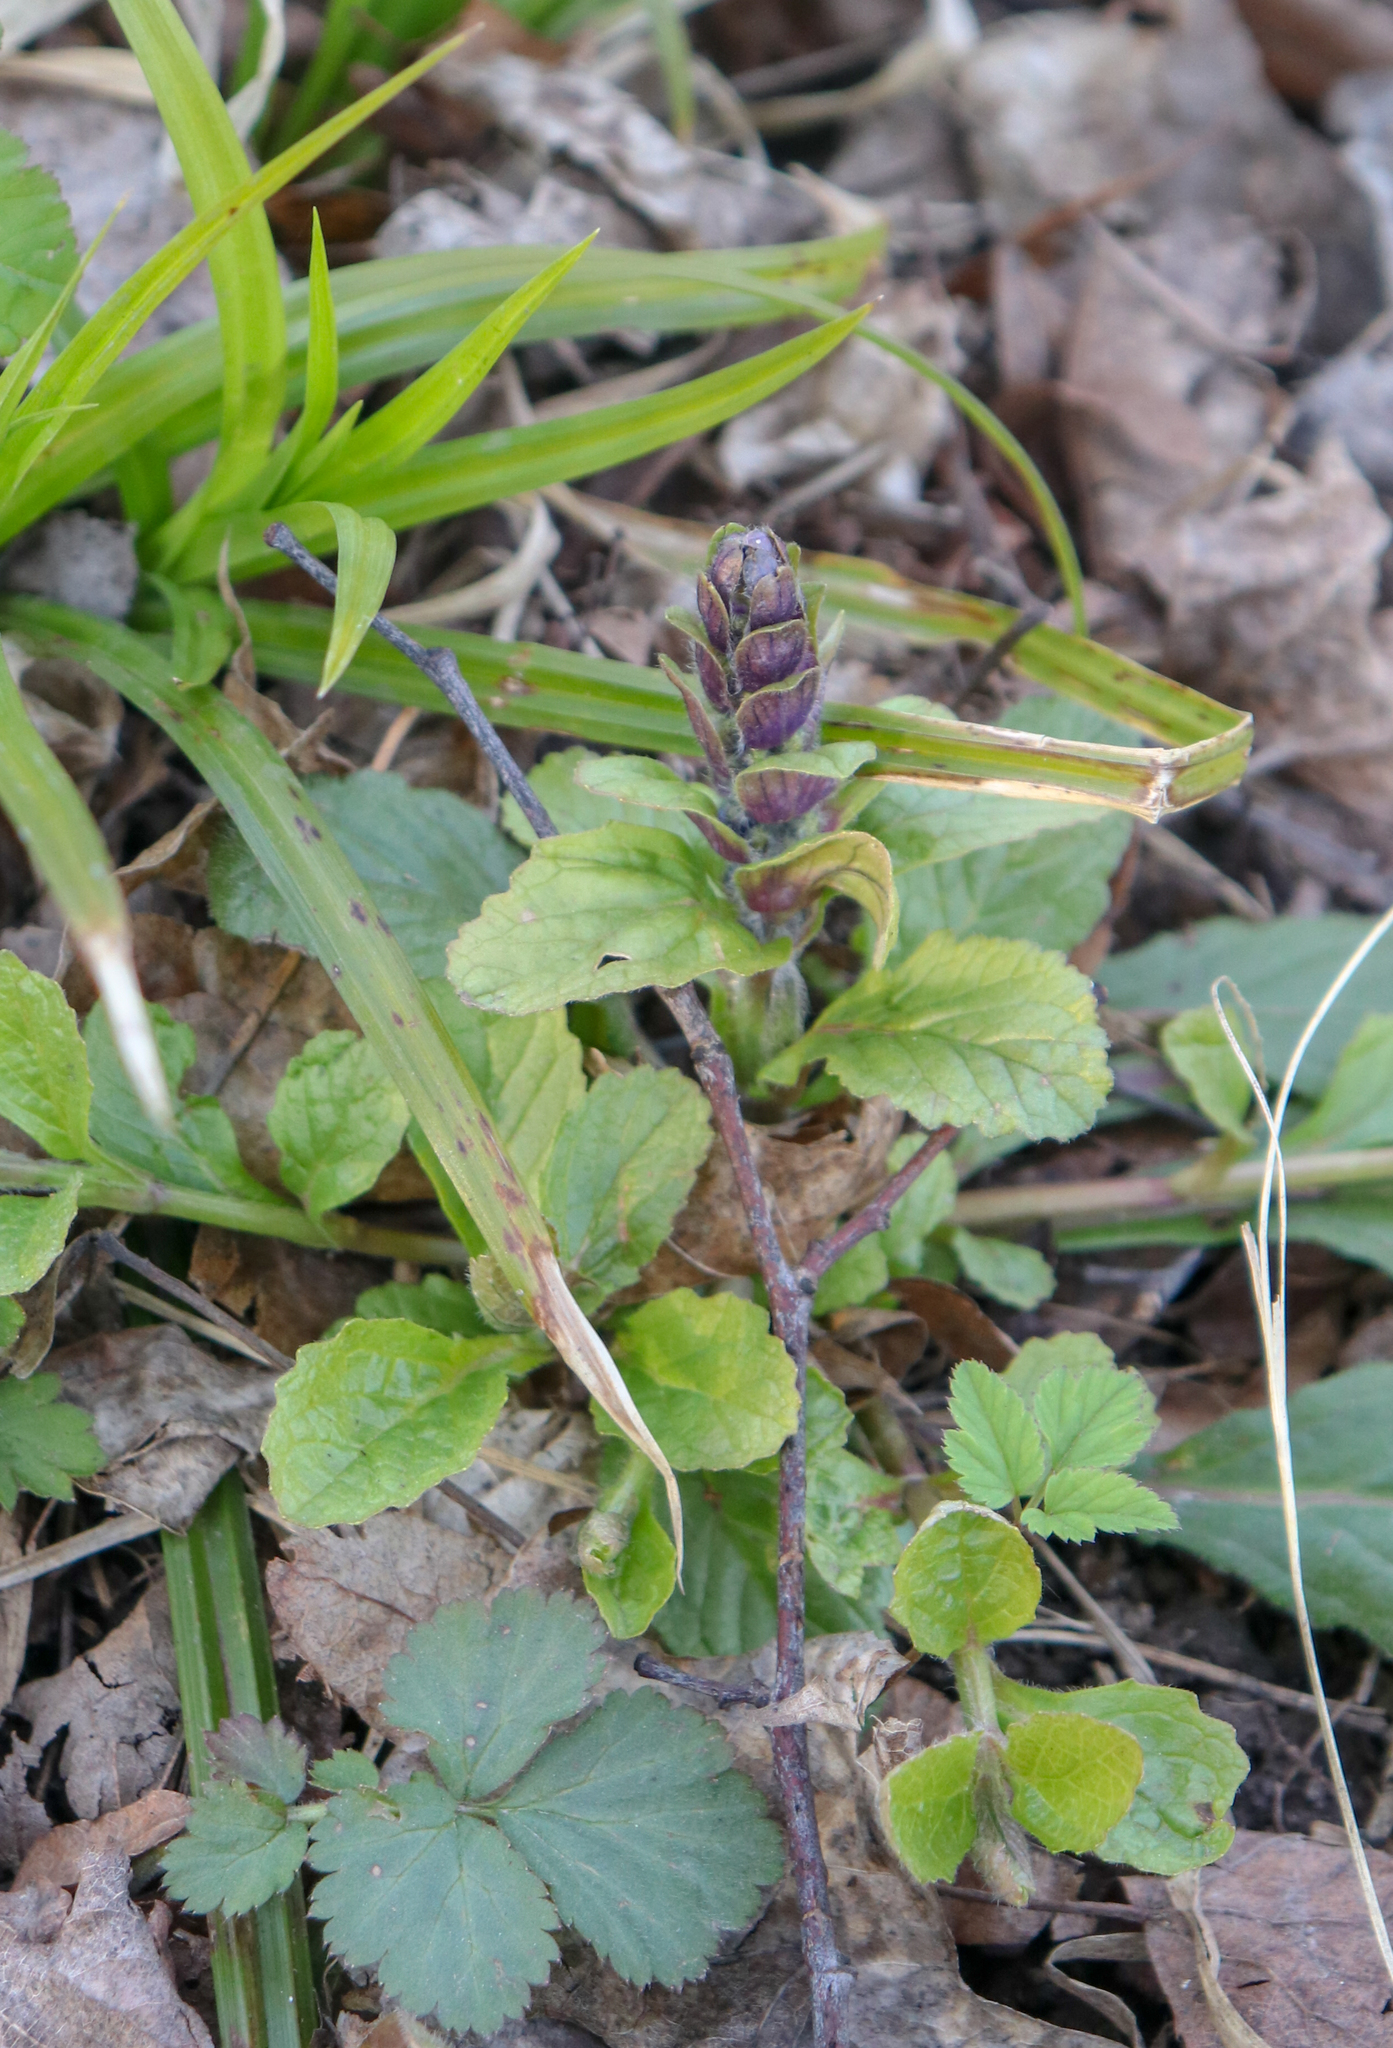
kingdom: Plantae
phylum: Tracheophyta
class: Magnoliopsida
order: Lamiales
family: Lamiaceae
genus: Ajuga
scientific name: Ajuga reptans
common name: Bugle
